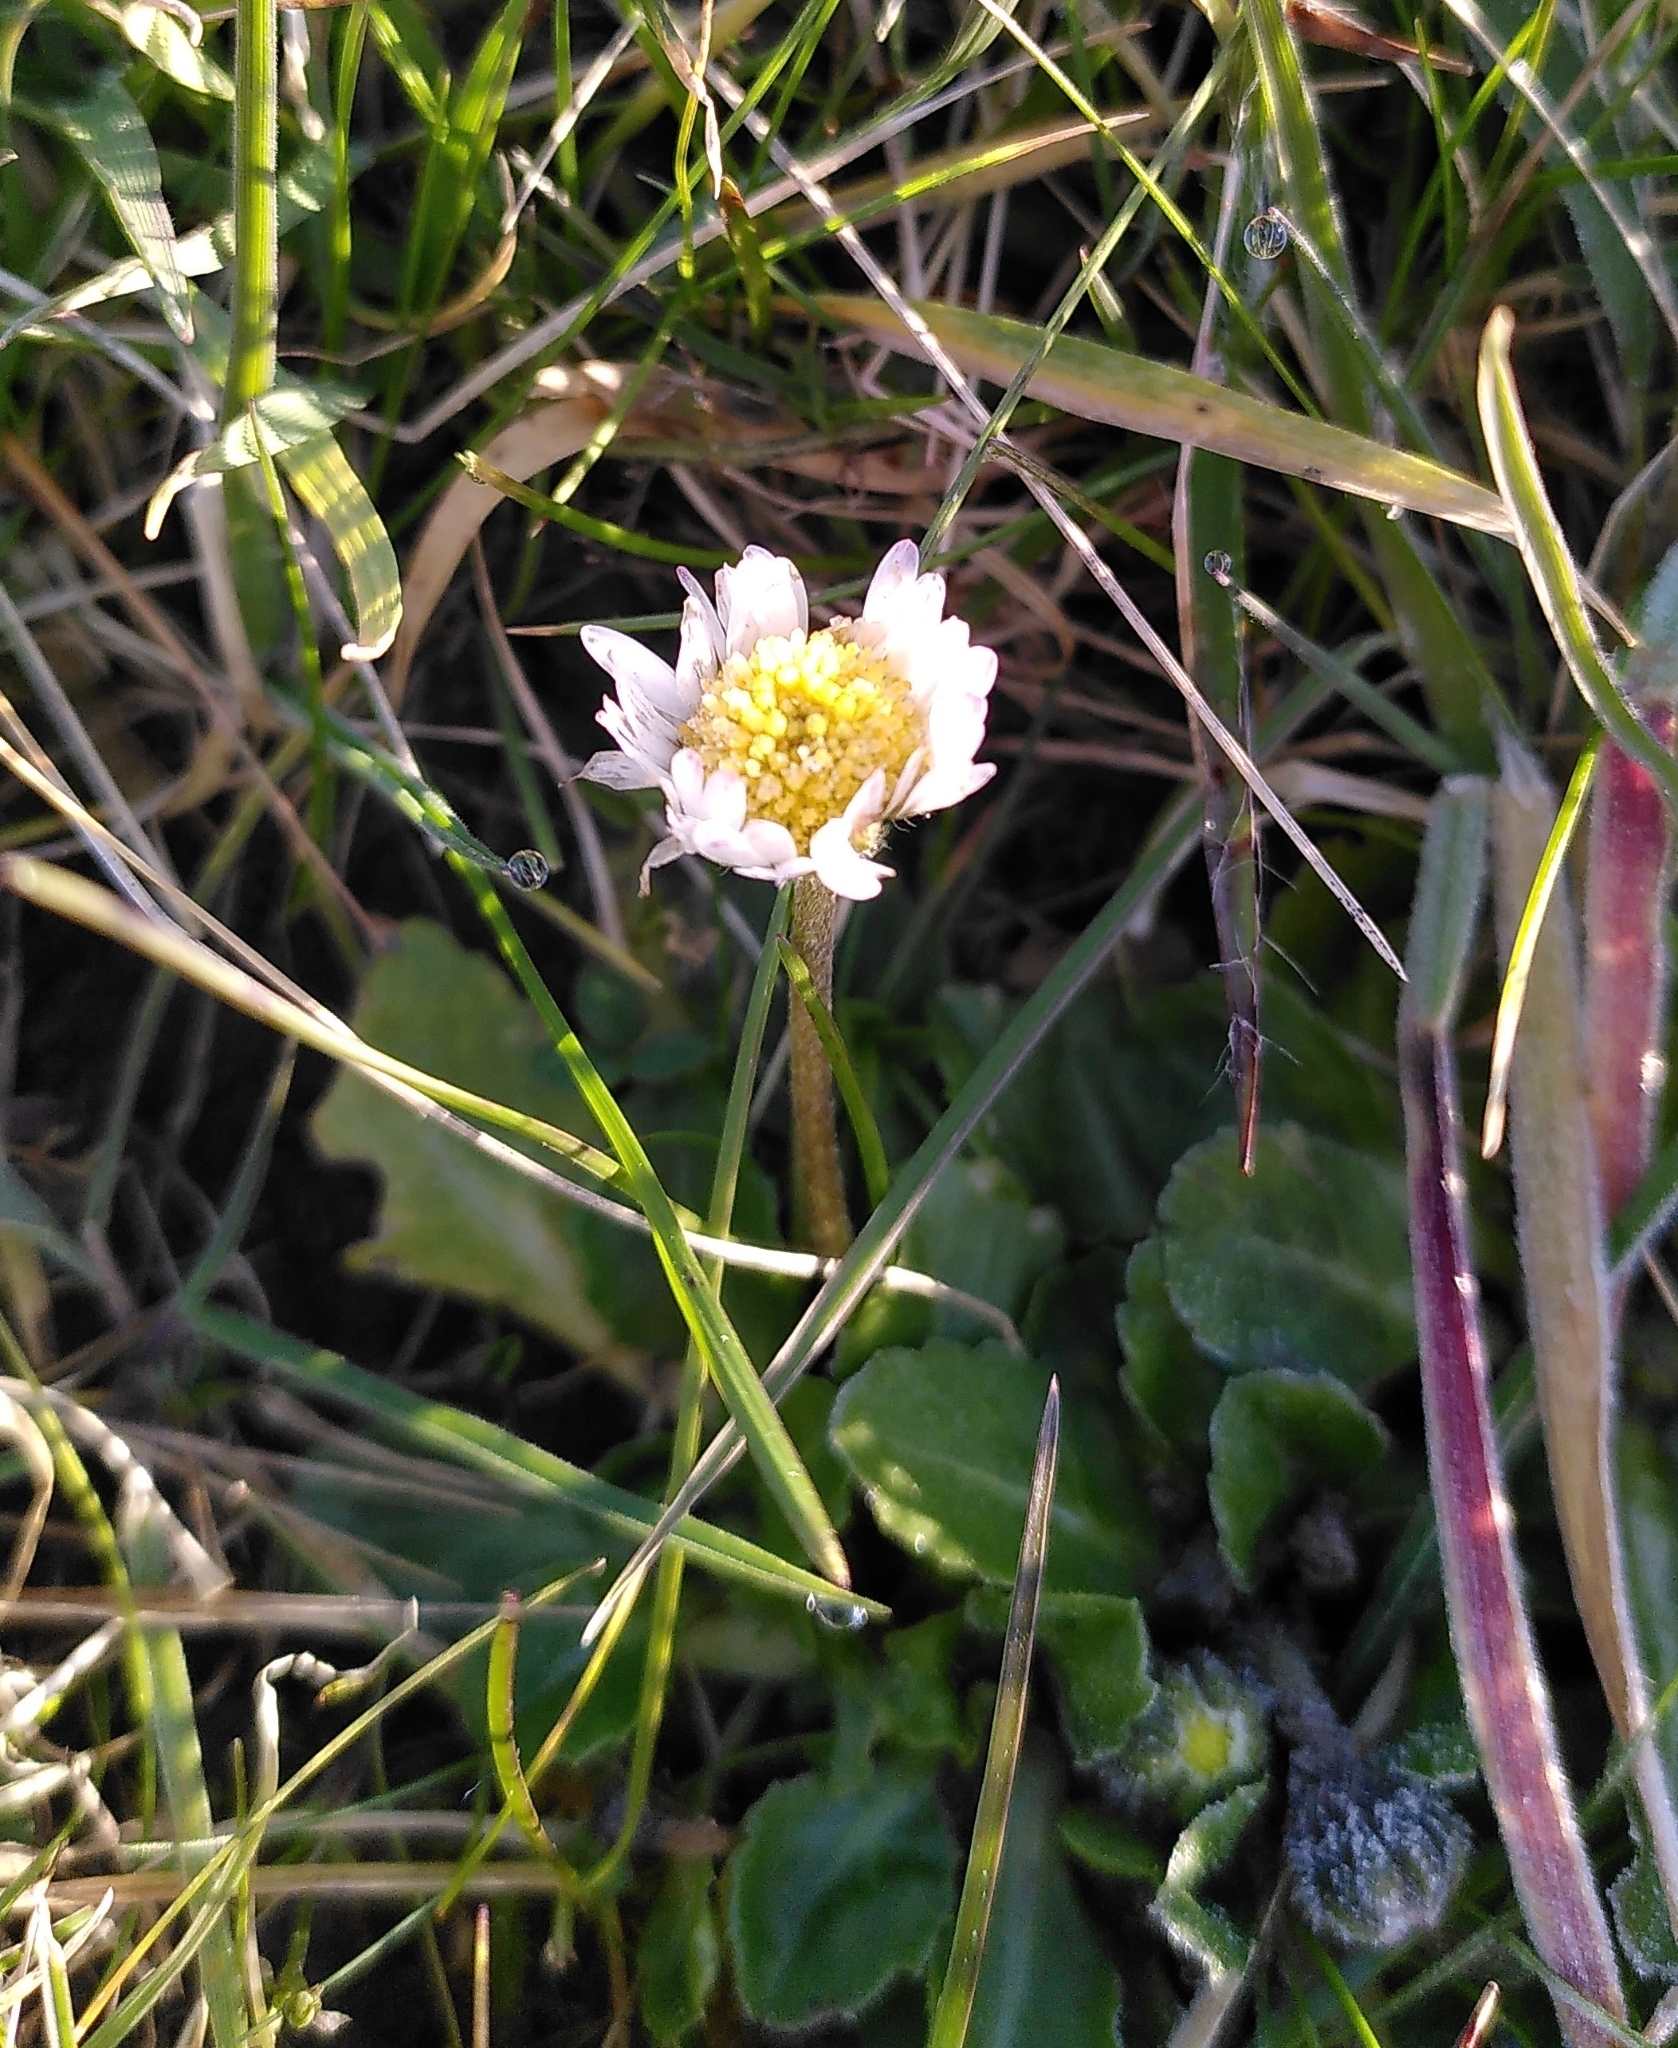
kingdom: Plantae
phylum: Tracheophyta
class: Magnoliopsida
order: Asterales
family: Asteraceae
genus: Bellis
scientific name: Bellis perennis
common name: Lawndaisy
